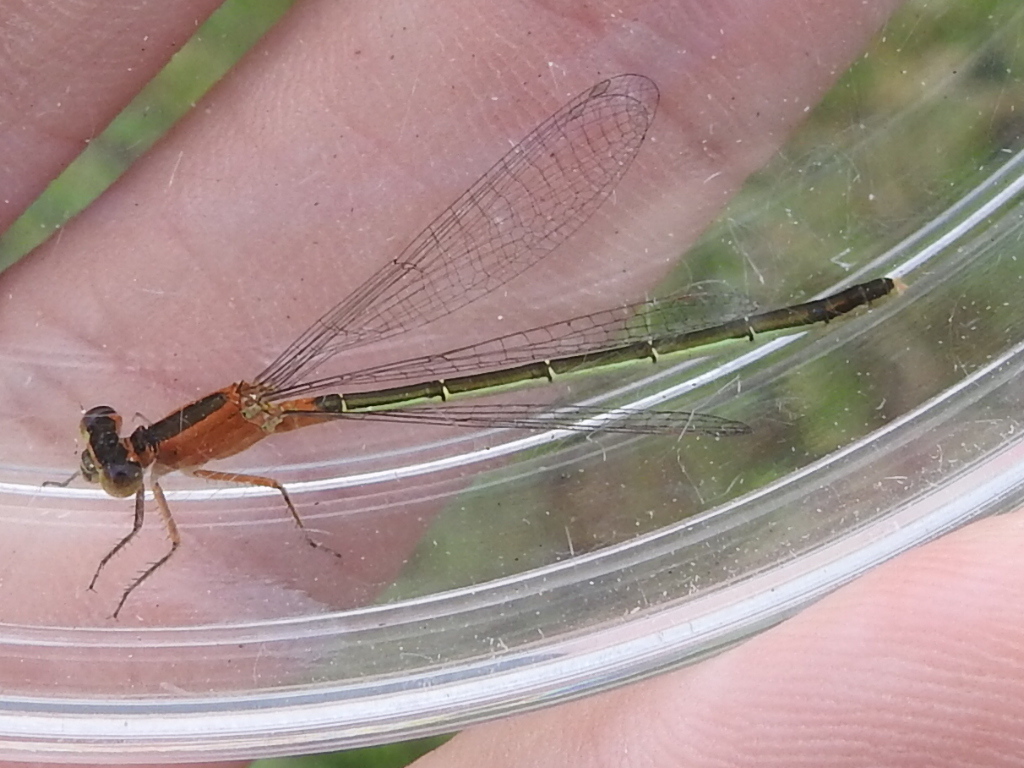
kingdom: Animalia
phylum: Arthropoda
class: Insecta
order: Odonata
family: Coenagrionidae
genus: Ischnura
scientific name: Ischnura ramburii
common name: Rambur's forktail
